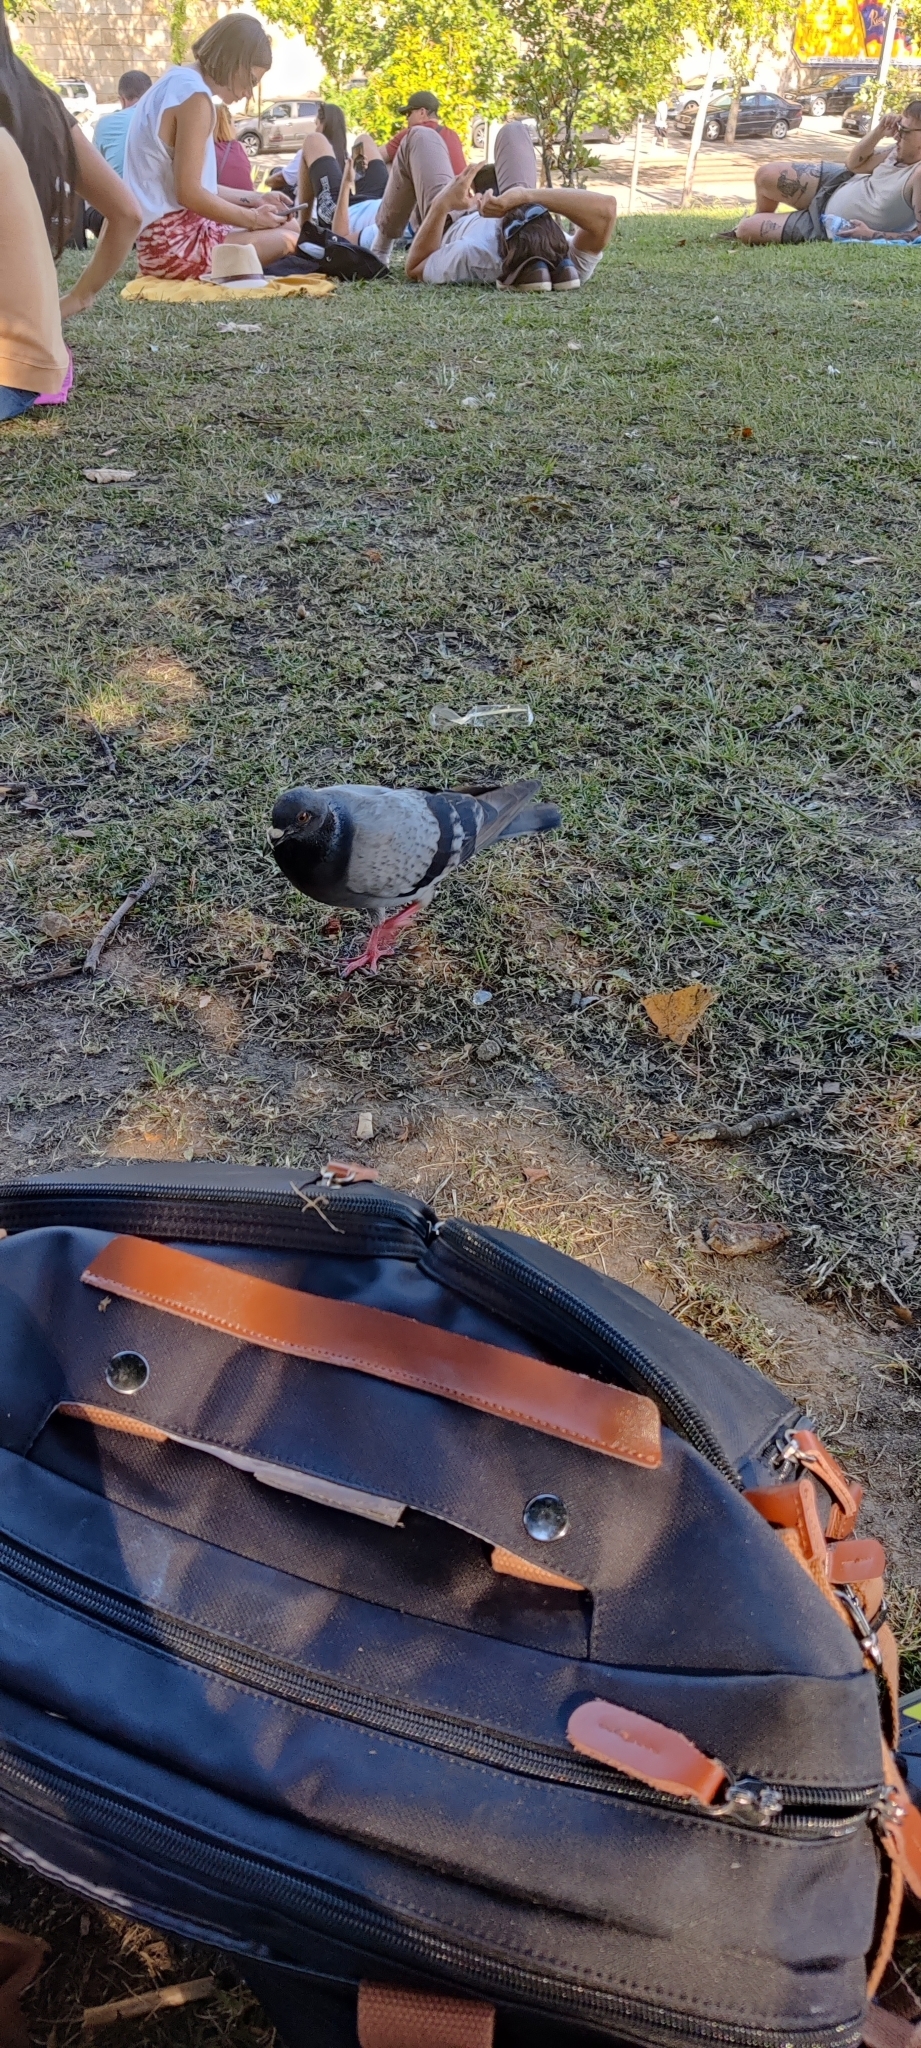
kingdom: Animalia
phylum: Chordata
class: Aves
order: Columbiformes
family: Columbidae
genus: Columba
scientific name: Columba livia
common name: Rock pigeon
